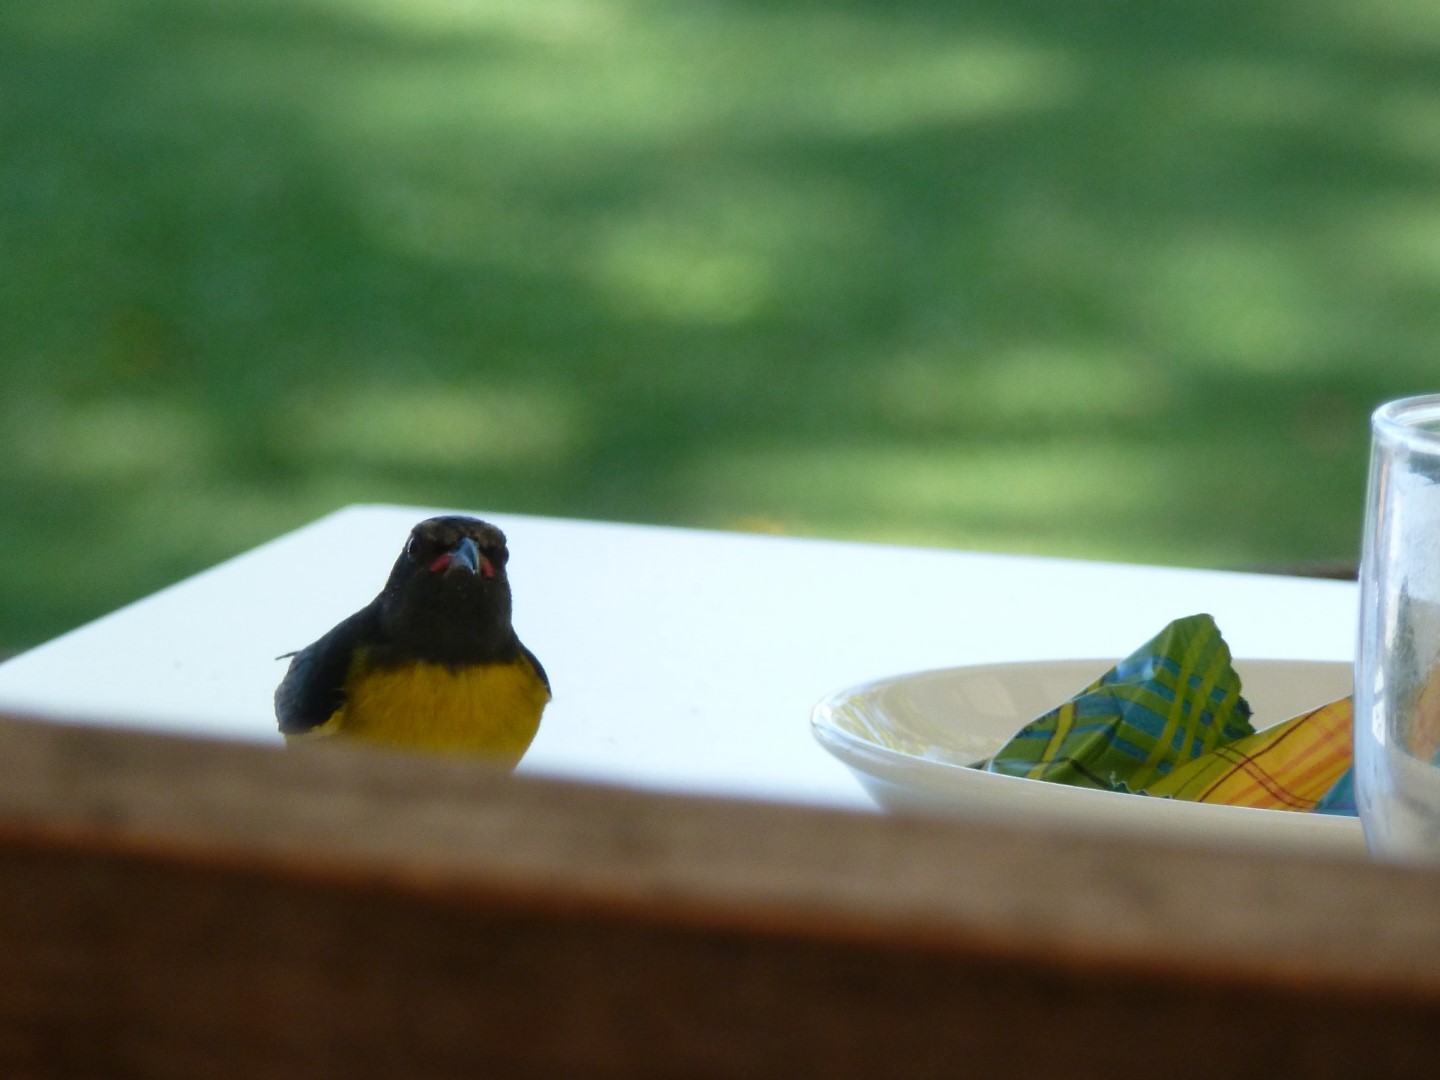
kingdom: Animalia
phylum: Chordata
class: Aves
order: Passeriformes
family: Thraupidae
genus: Coereba
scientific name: Coereba flaveola
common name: Bananaquit
